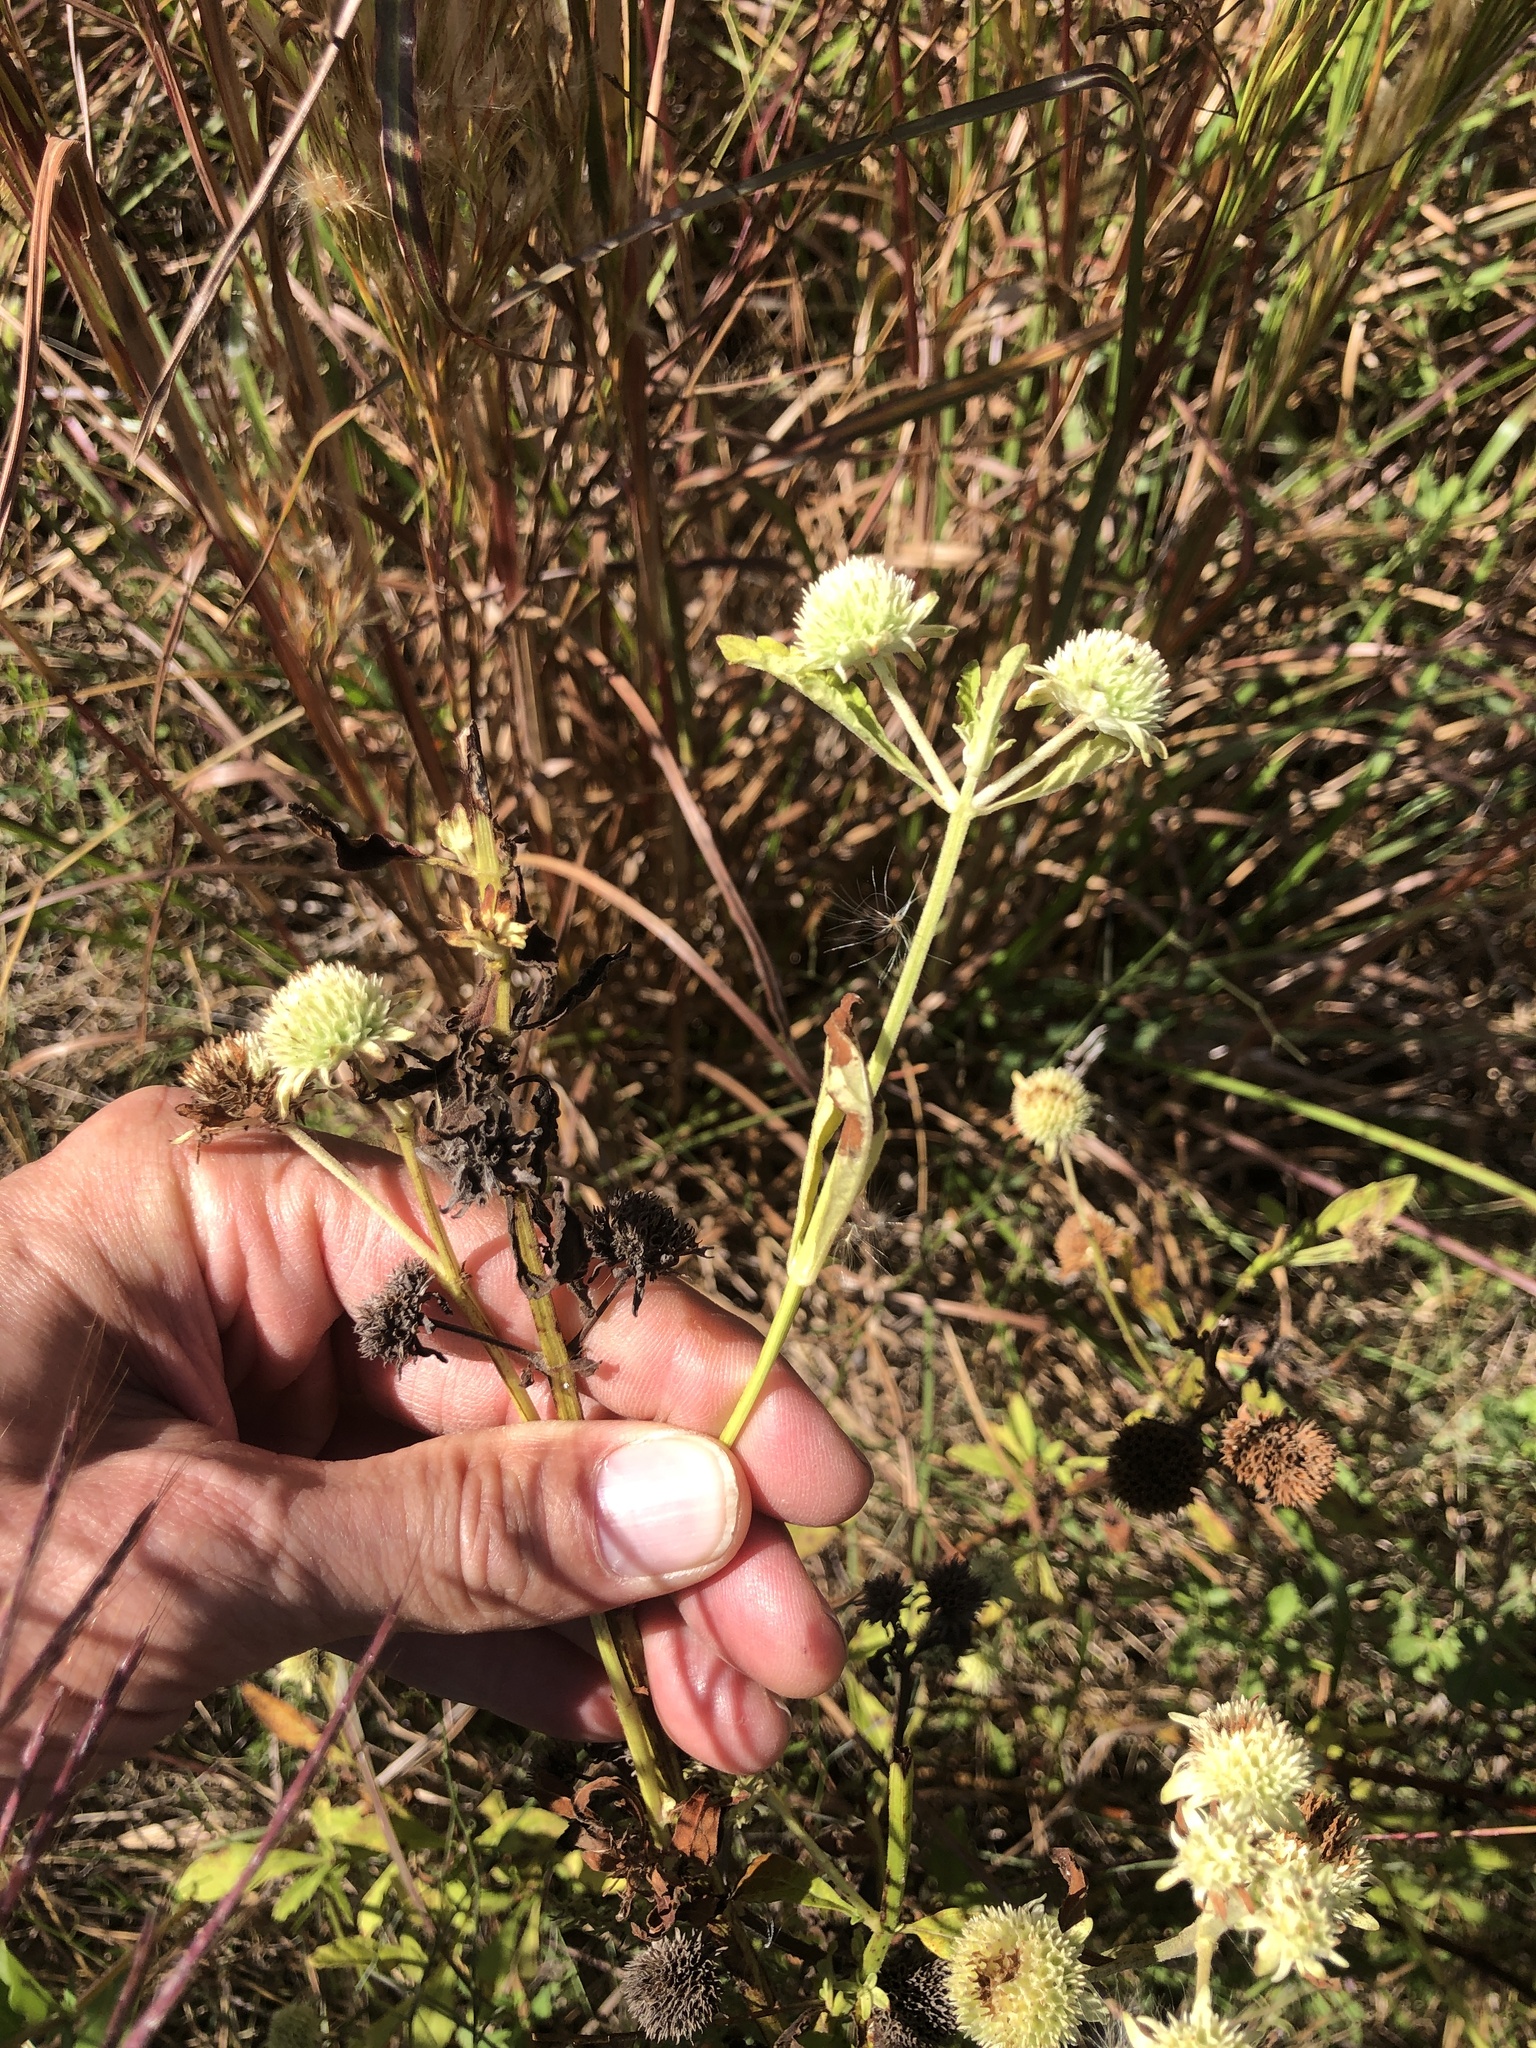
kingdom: Plantae
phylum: Tracheophyta
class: Magnoliopsida
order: Lamiales
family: Lamiaceae
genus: Hyptis
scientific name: Hyptis alata
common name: Cluster bush-mint
